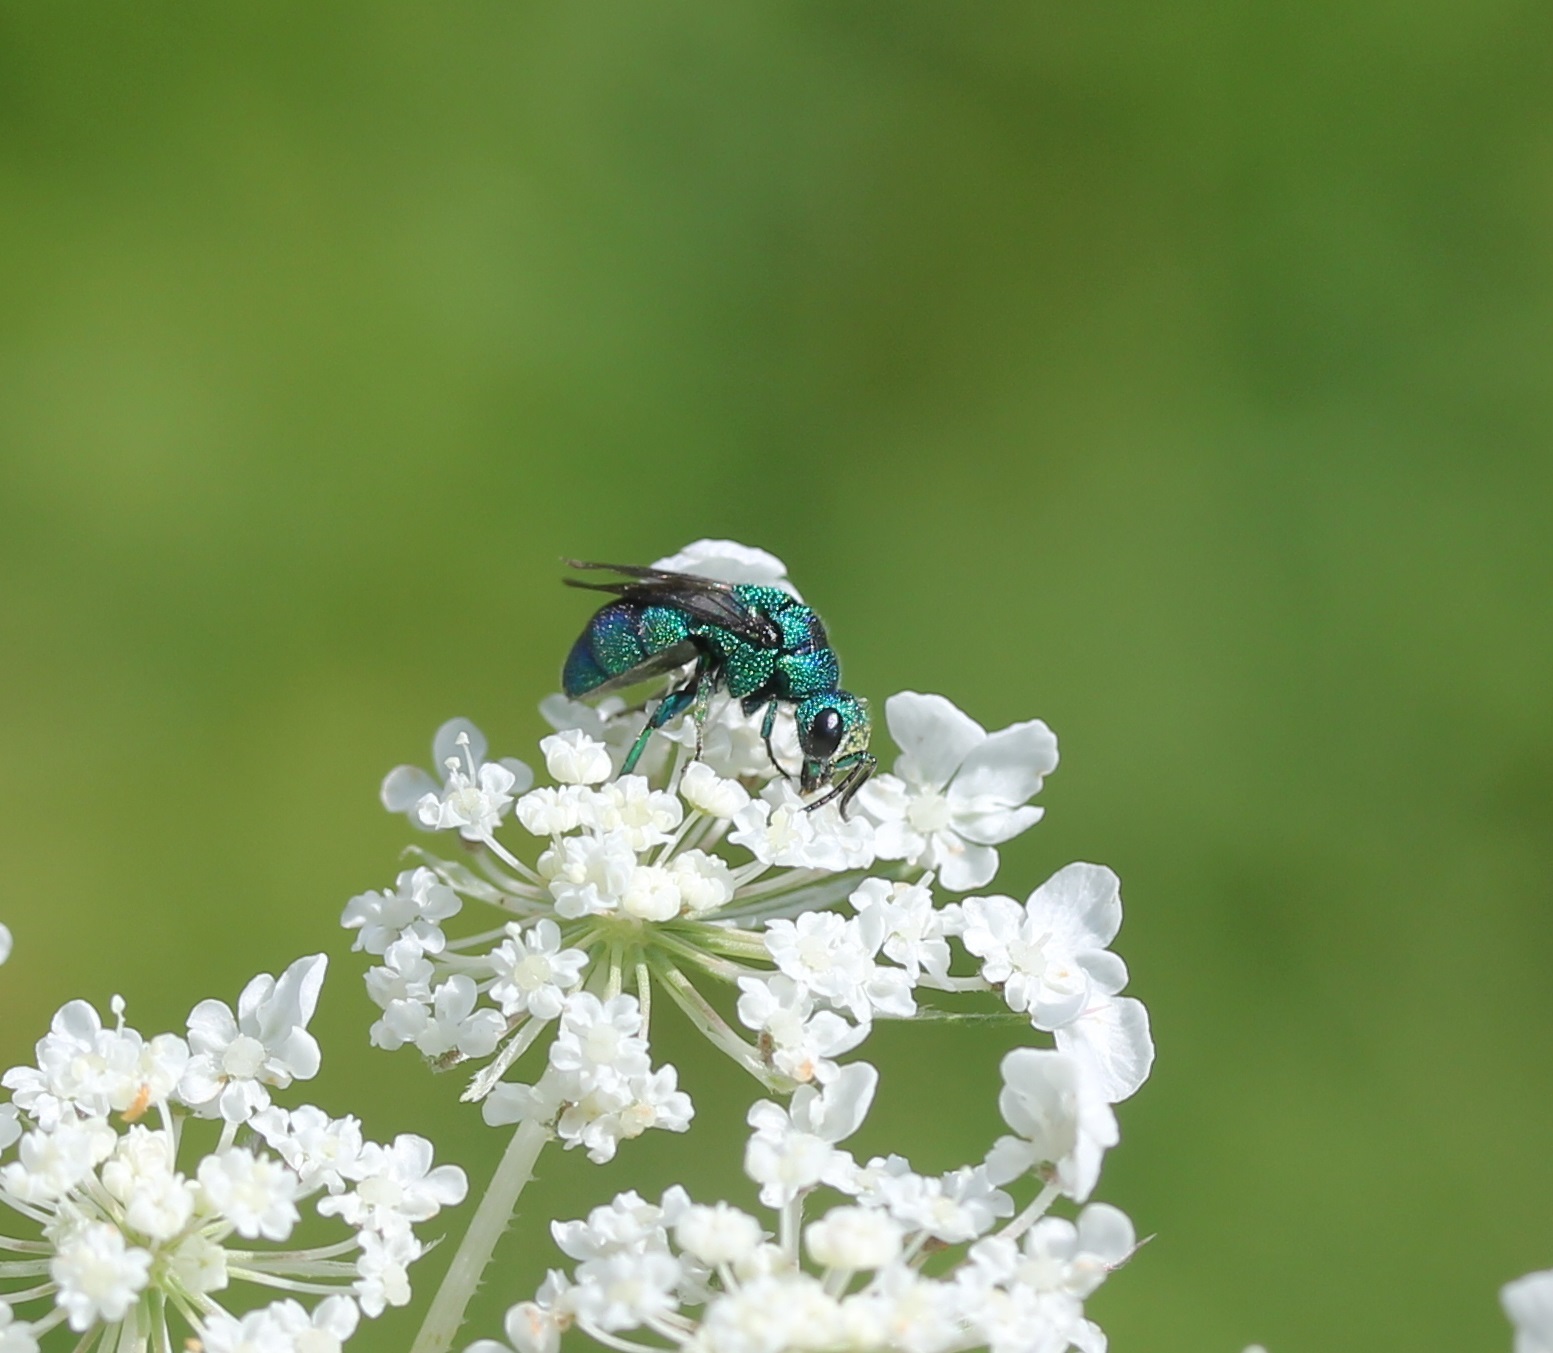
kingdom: Animalia
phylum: Arthropoda
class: Insecta
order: Hymenoptera
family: Chrysididae
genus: Holopyga
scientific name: Holopyga
